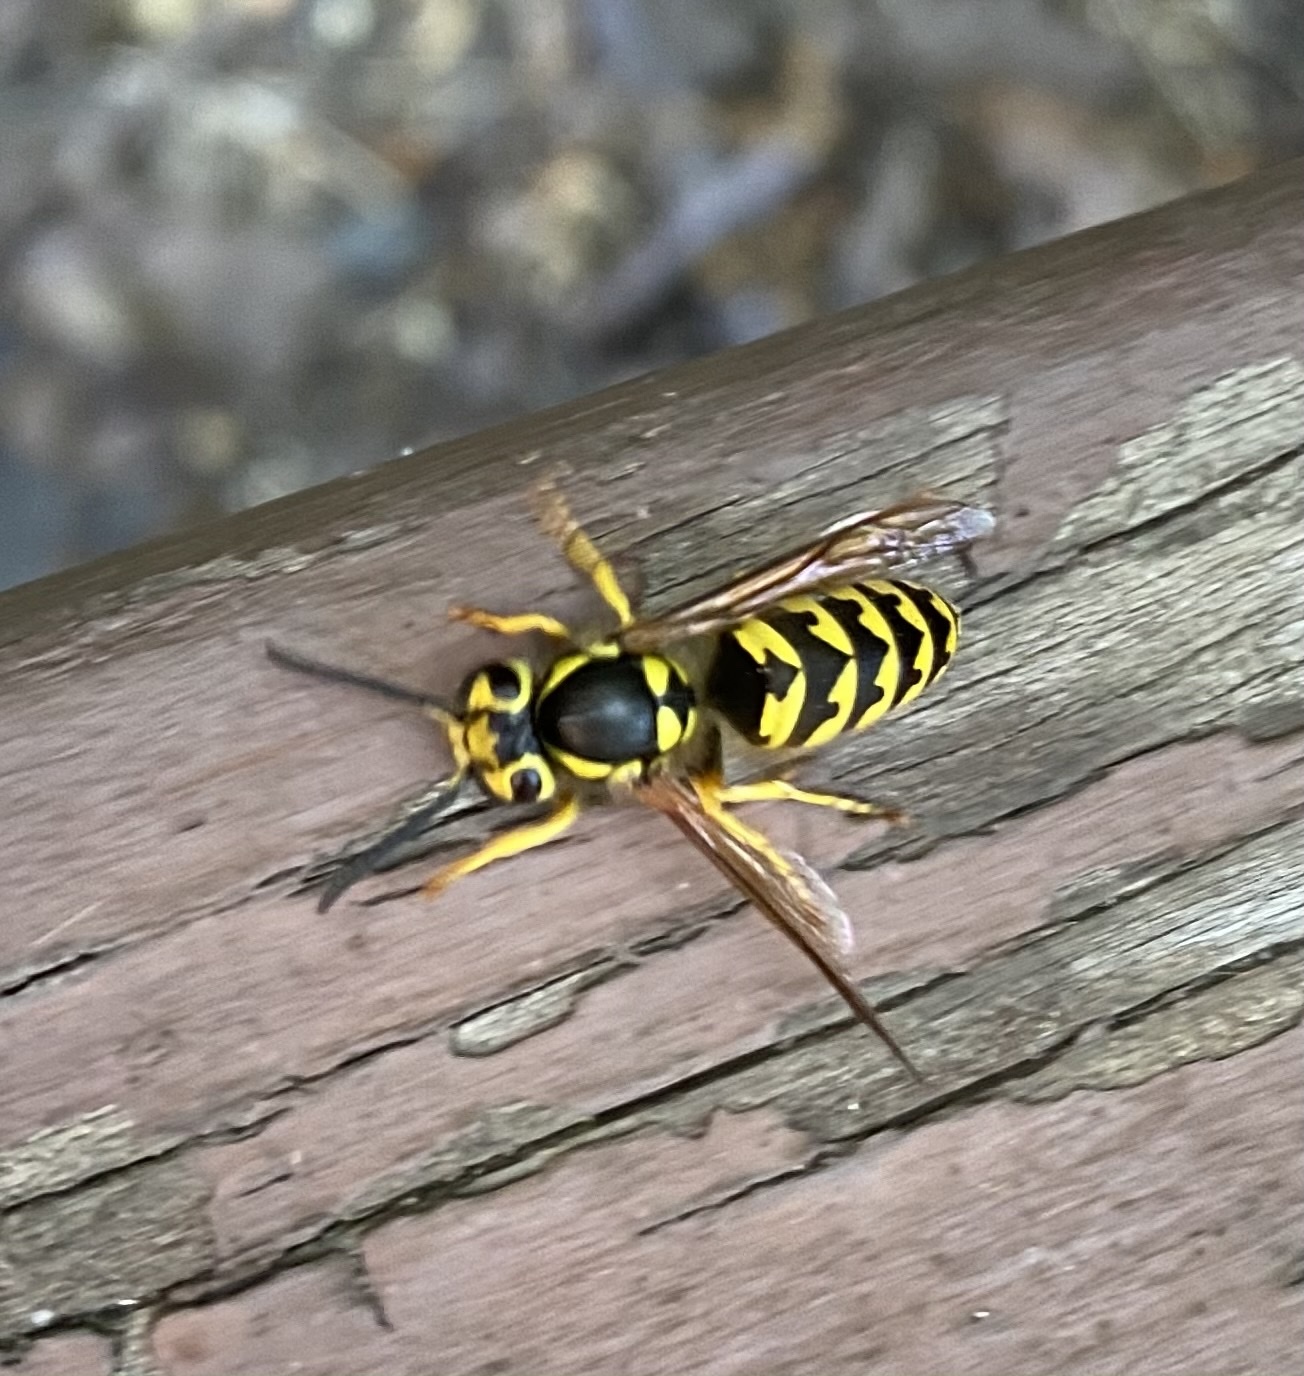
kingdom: Animalia
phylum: Arthropoda
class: Insecta
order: Hymenoptera
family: Vespidae
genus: Vespula
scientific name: Vespula pensylvanica
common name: Western yellowjacket
